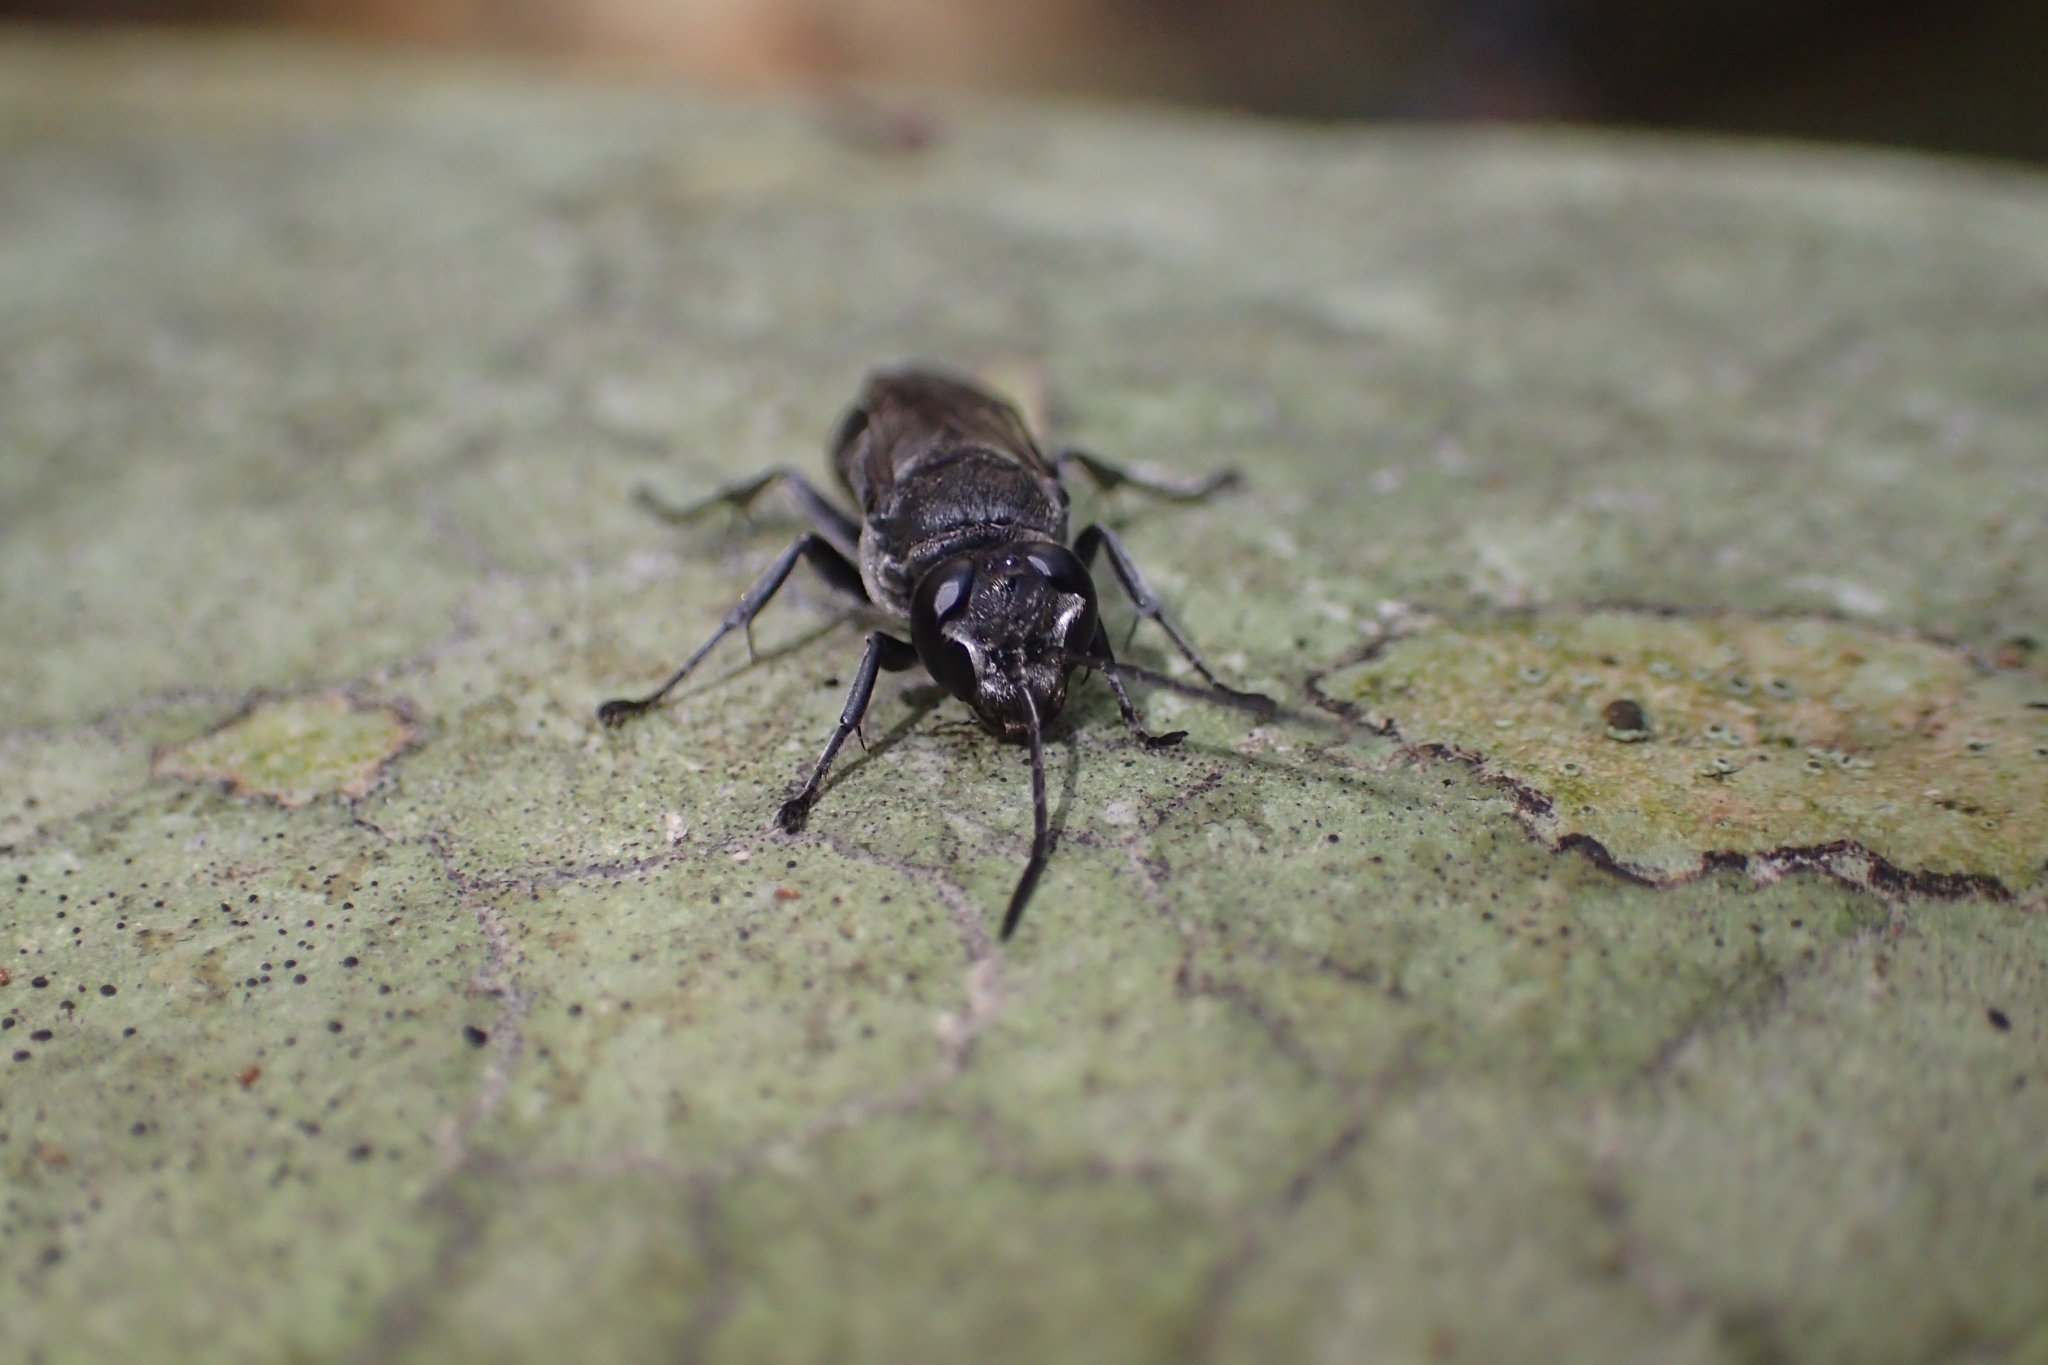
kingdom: Animalia
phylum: Arthropoda
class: Insecta
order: Hymenoptera
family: Crabronidae
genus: Pison
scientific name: Pison spinolae
